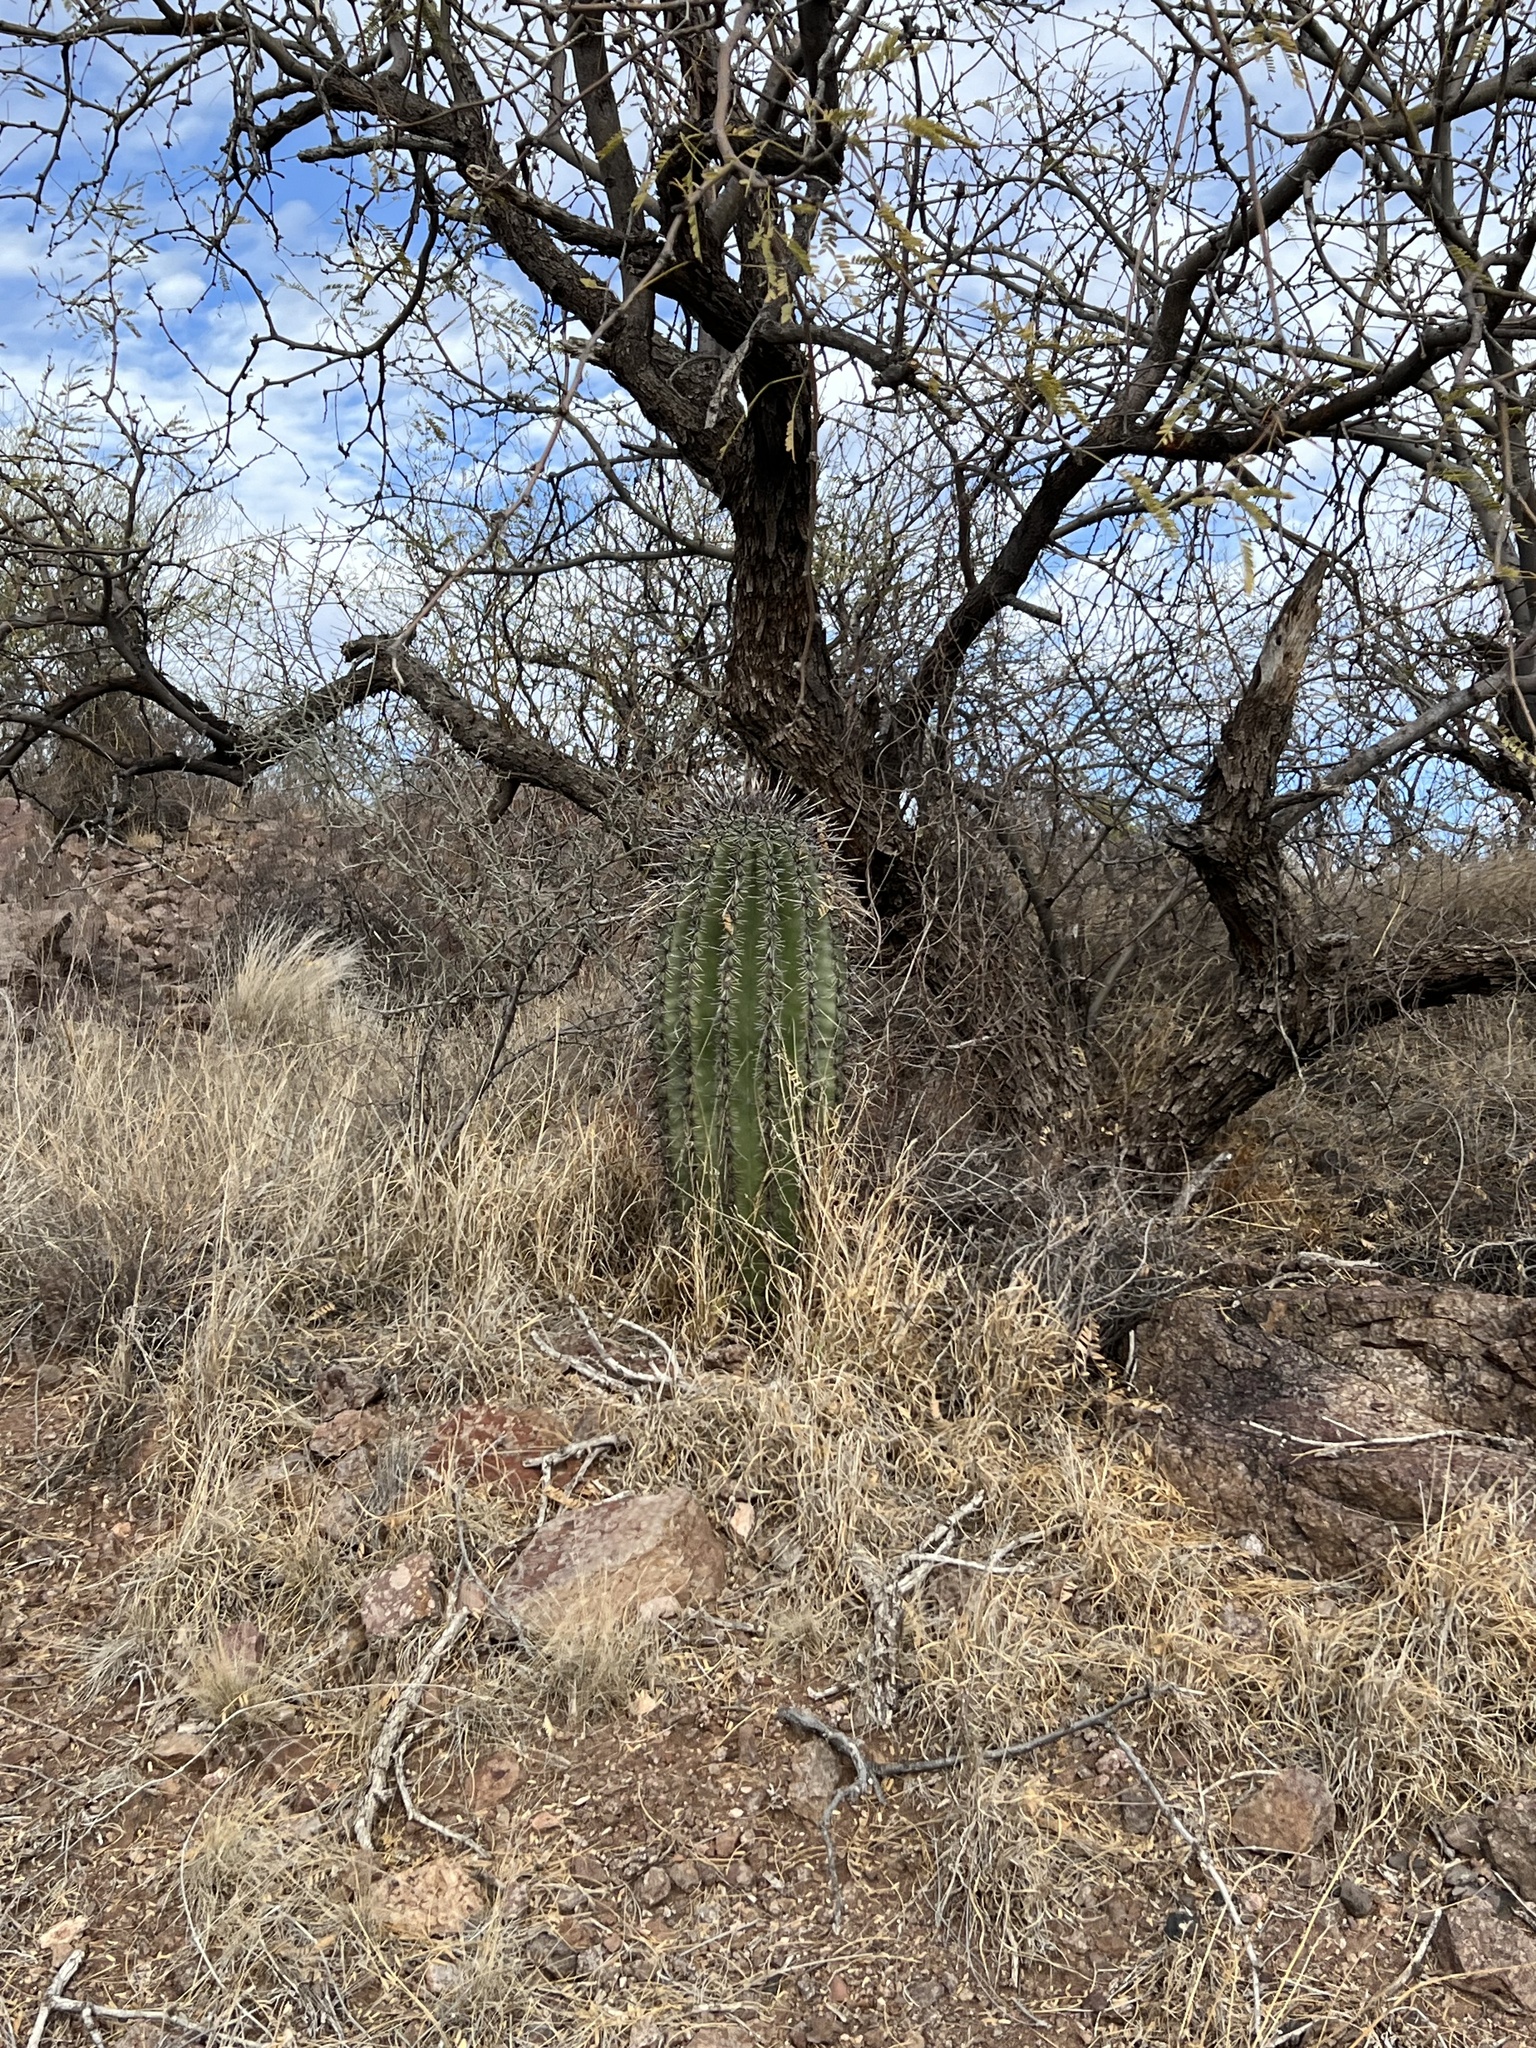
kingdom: Plantae
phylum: Tracheophyta
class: Magnoliopsida
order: Caryophyllales
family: Cactaceae
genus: Carnegiea
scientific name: Carnegiea gigantea
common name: Saguaro
